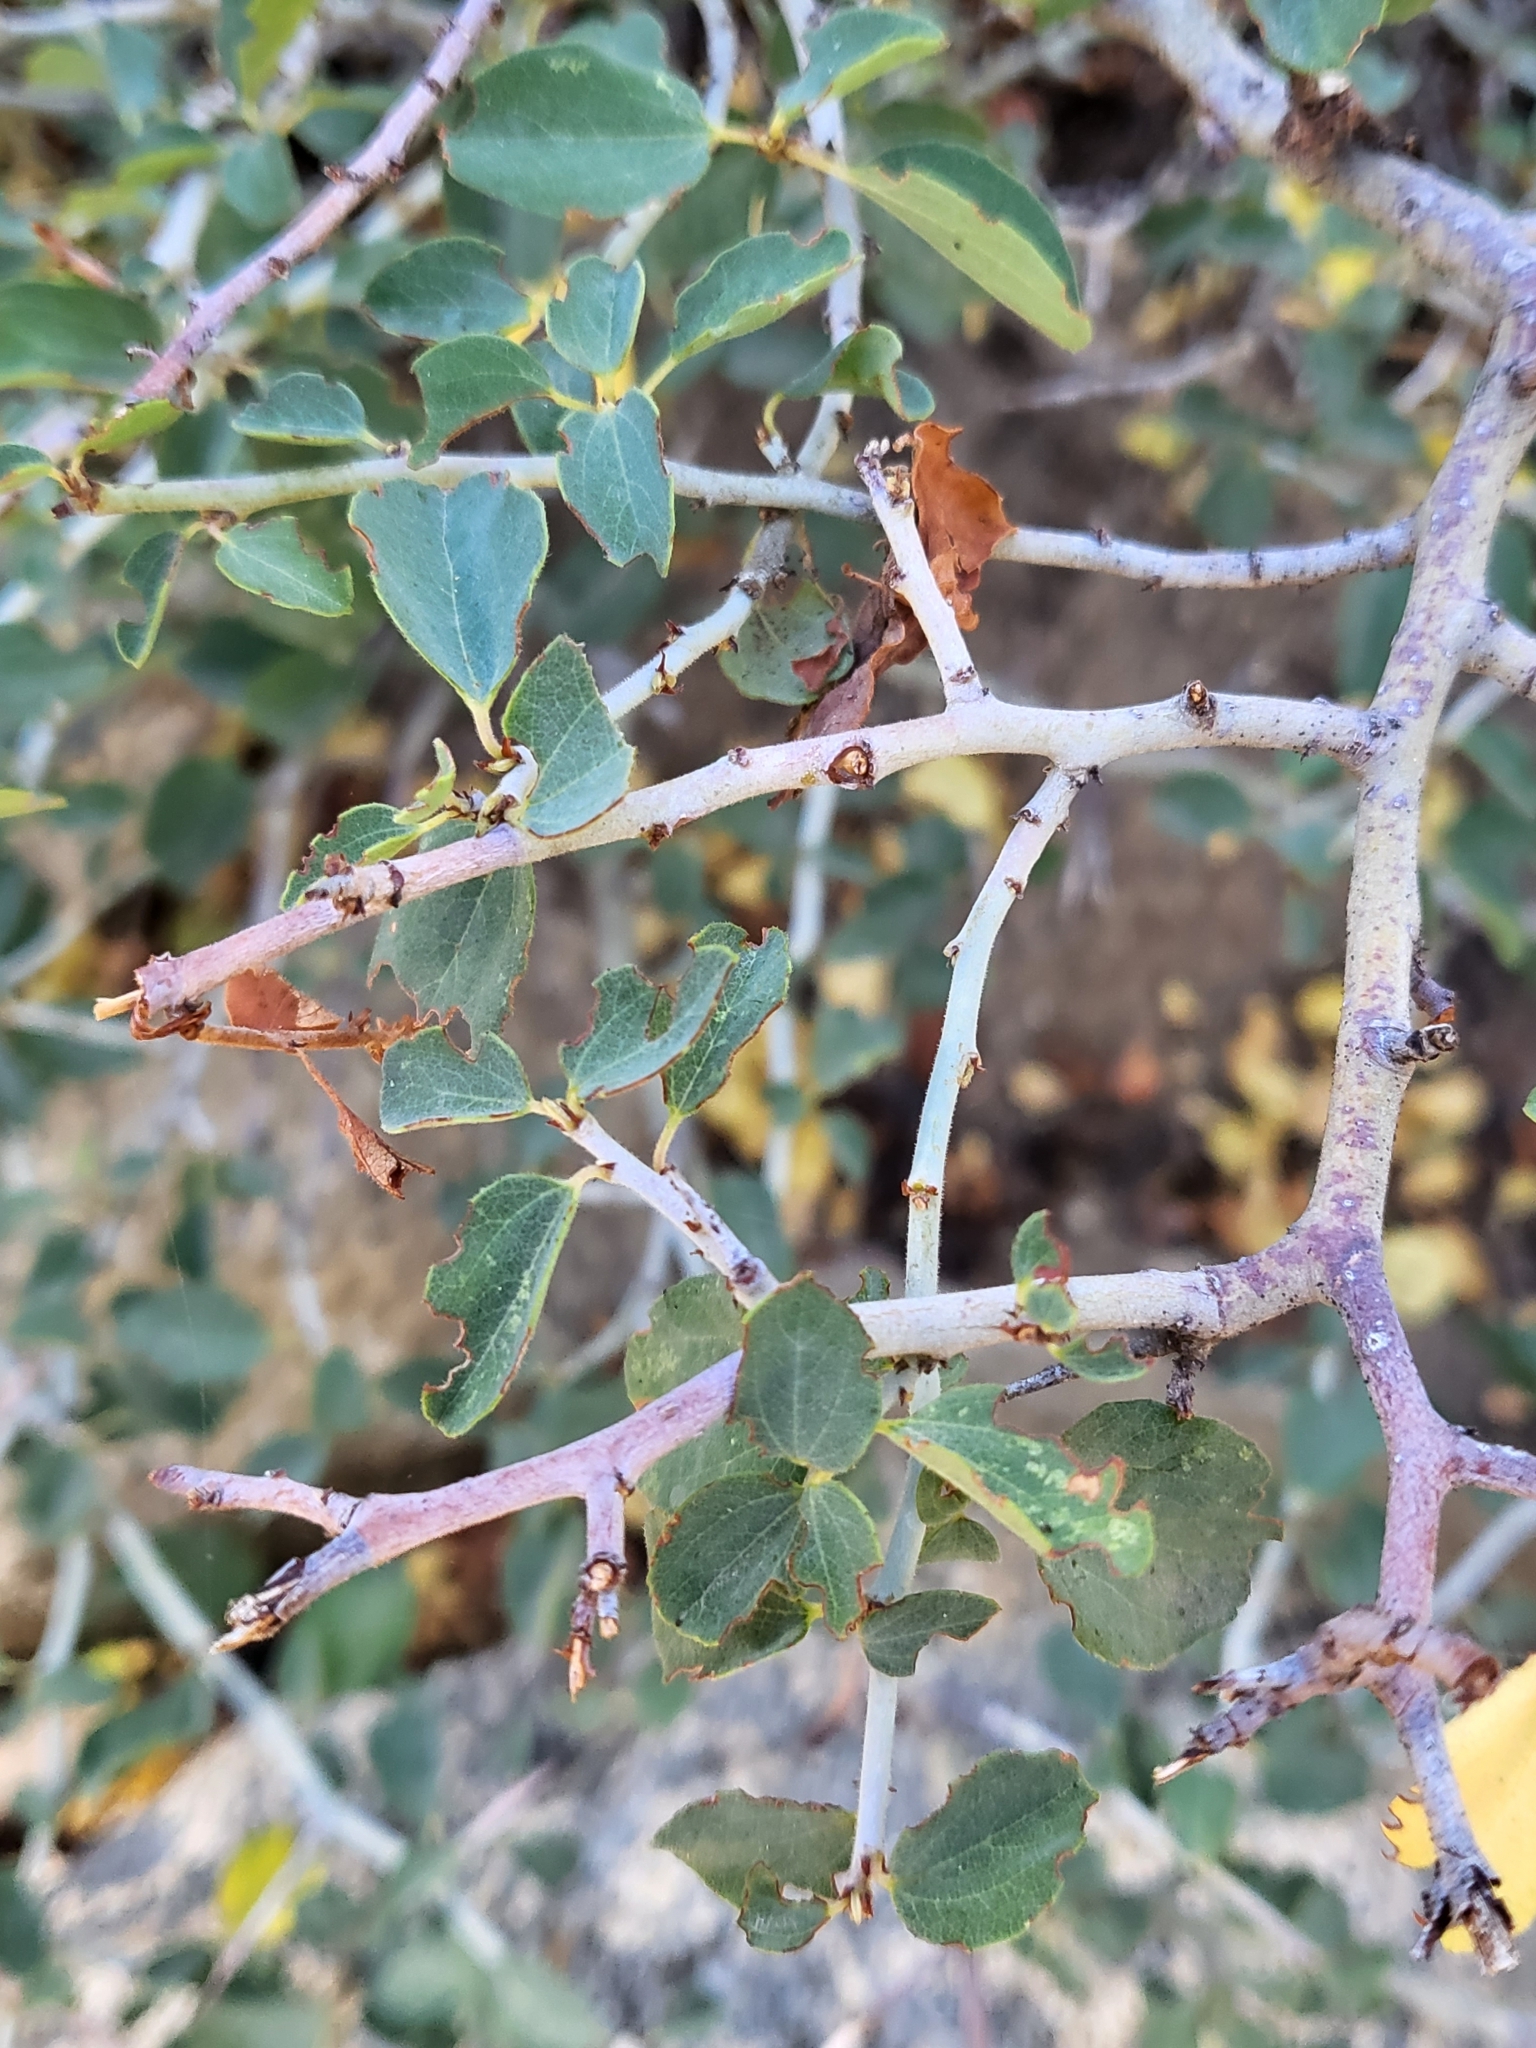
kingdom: Plantae
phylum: Tracheophyta
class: Magnoliopsida
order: Rosales
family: Rhamnaceae
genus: Ceanothus
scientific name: Ceanothus cordulatus
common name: Mountain whitethorn
